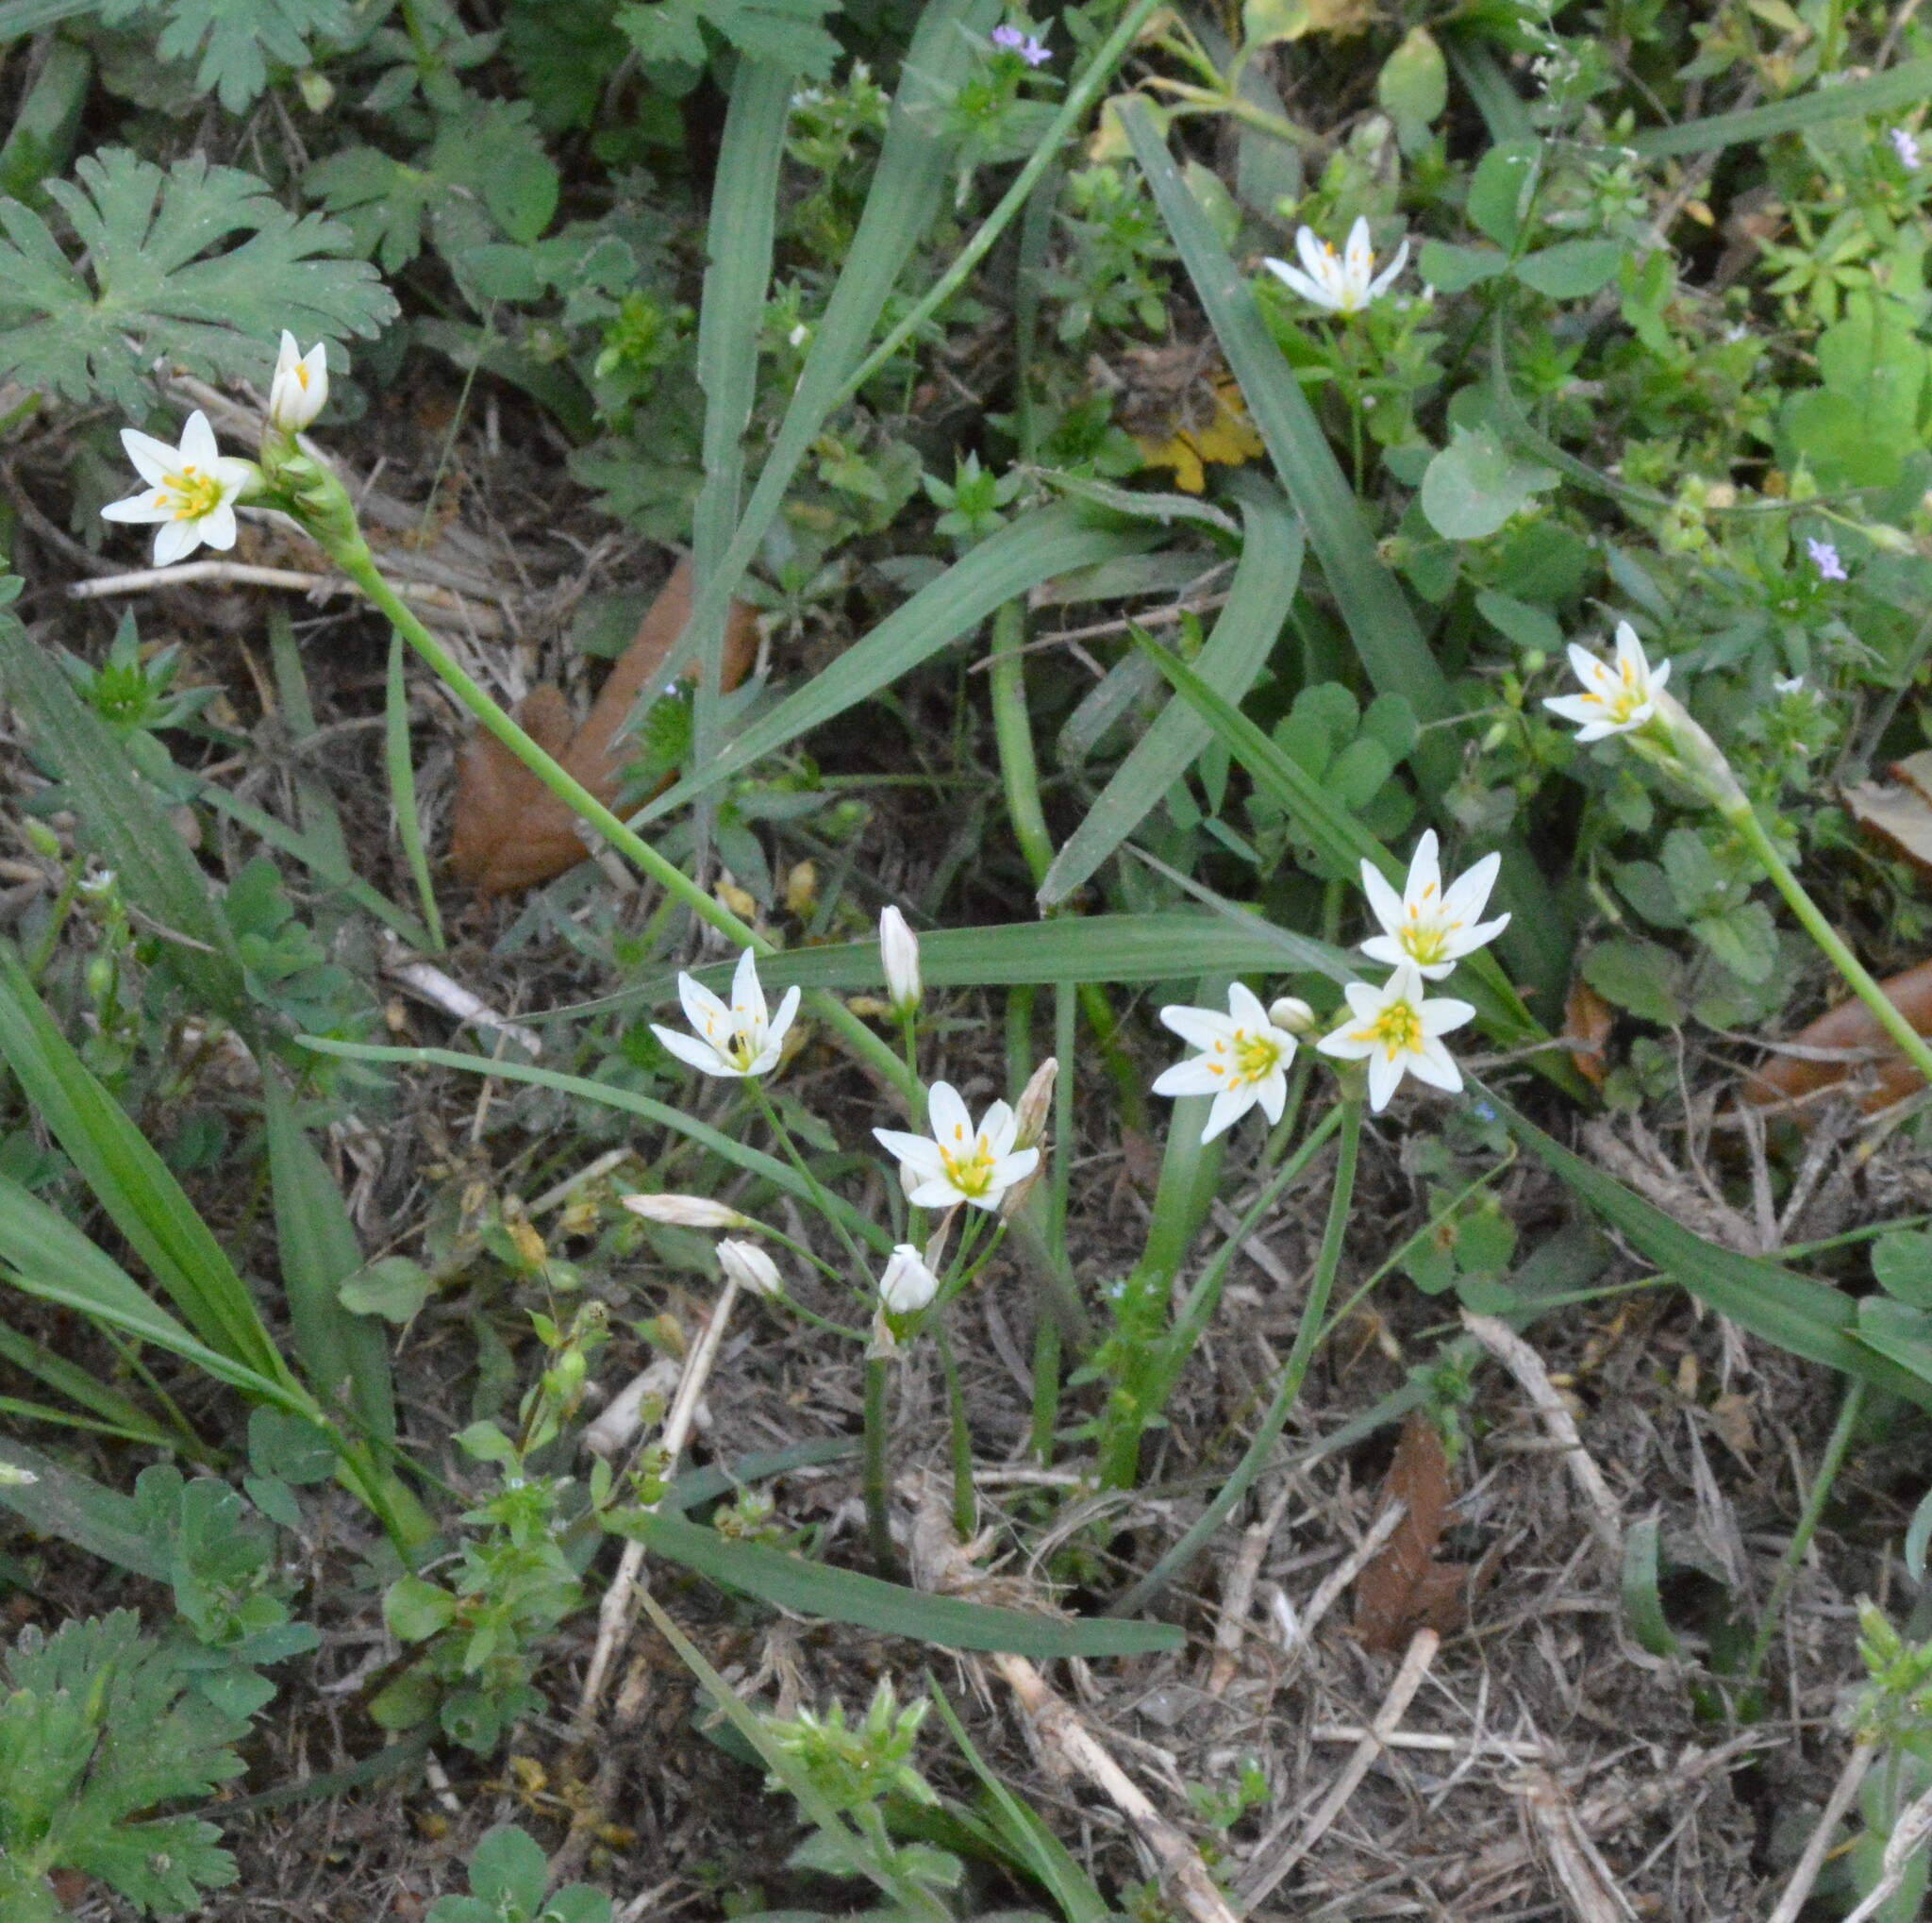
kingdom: Plantae
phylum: Tracheophyta
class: Liliopsida
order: Asparagales
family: Amaryllidaceae
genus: Nothoscordum
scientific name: Nothoscordum bivalve
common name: Crow-poison
